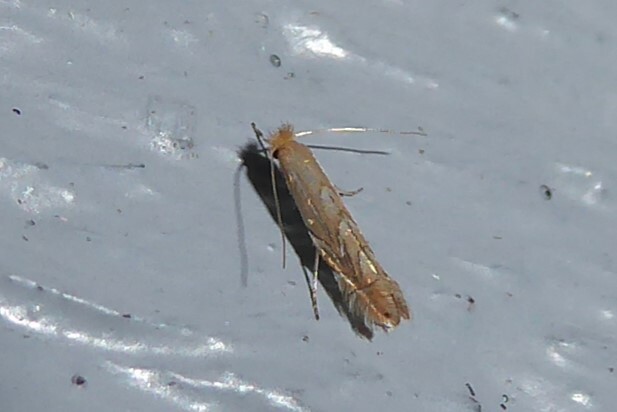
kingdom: Animalia
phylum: Arthropoda
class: Insecta
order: Lepidoptera
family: Gracillariidae
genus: Phyllonorycter
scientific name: Phyllonorycter messaniella
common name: Garden midget
